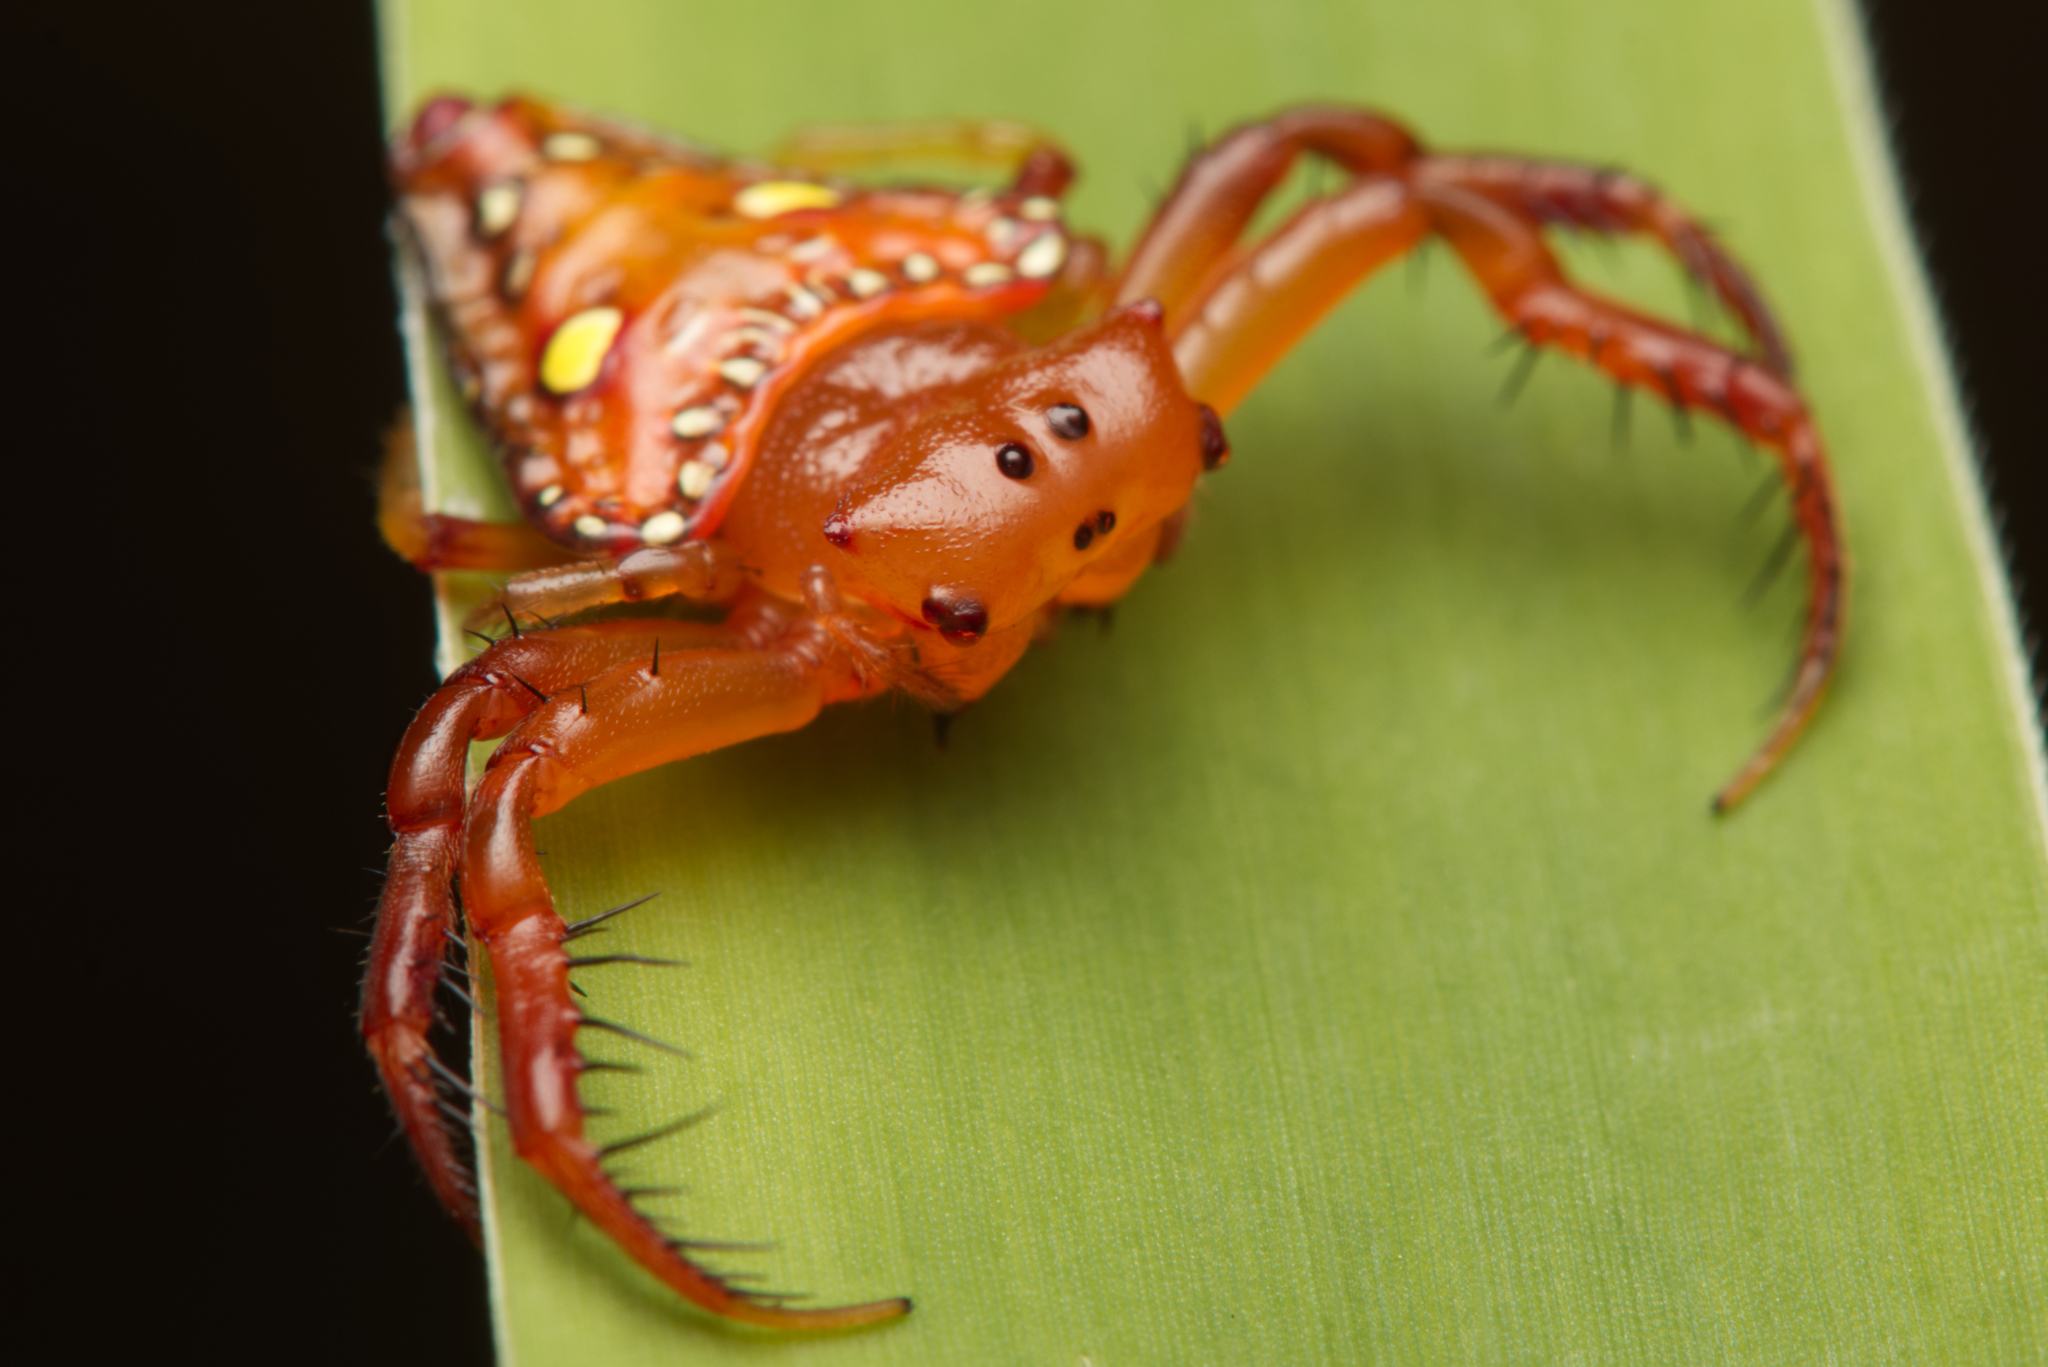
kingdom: Animalia
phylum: Arthropoda
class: Arachnida
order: Araneae
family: Arkyidae
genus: Arkys
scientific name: Arkys lancearius
